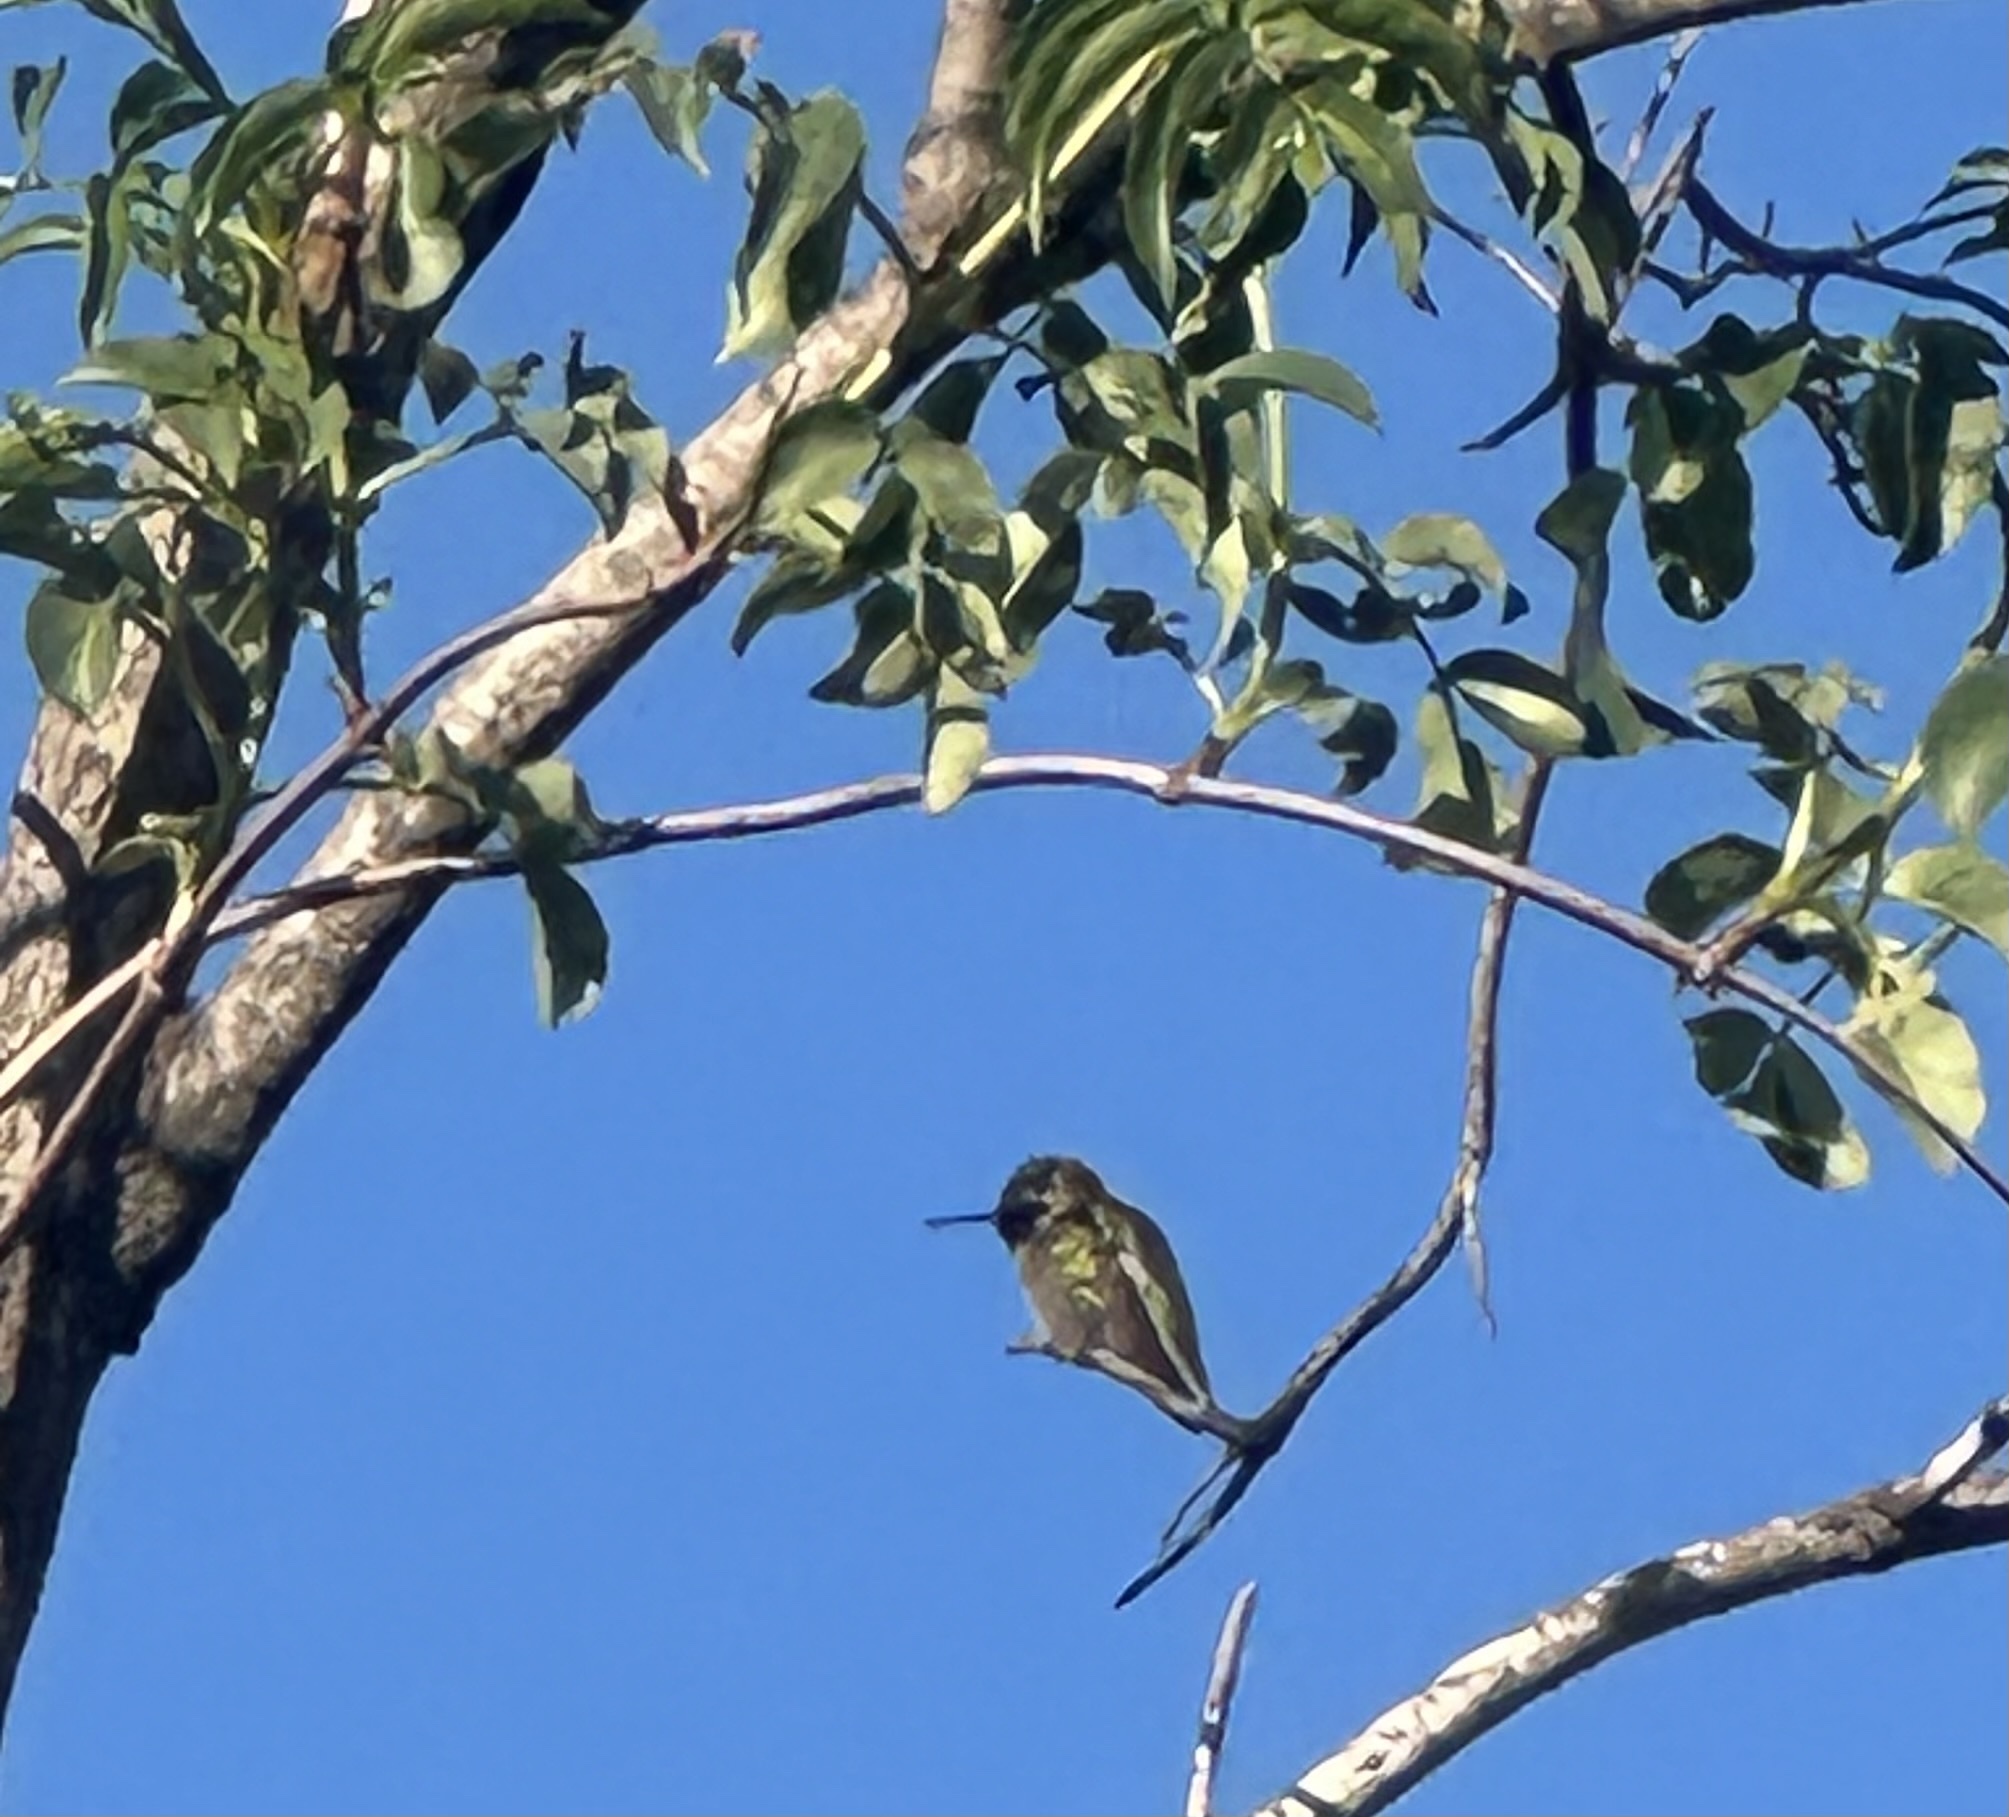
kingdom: Animalia
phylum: Chordata
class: Aves
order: Apodiformes
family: Trochilidae
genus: Calypte
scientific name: Calypte anna
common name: Anna's hummingbird
